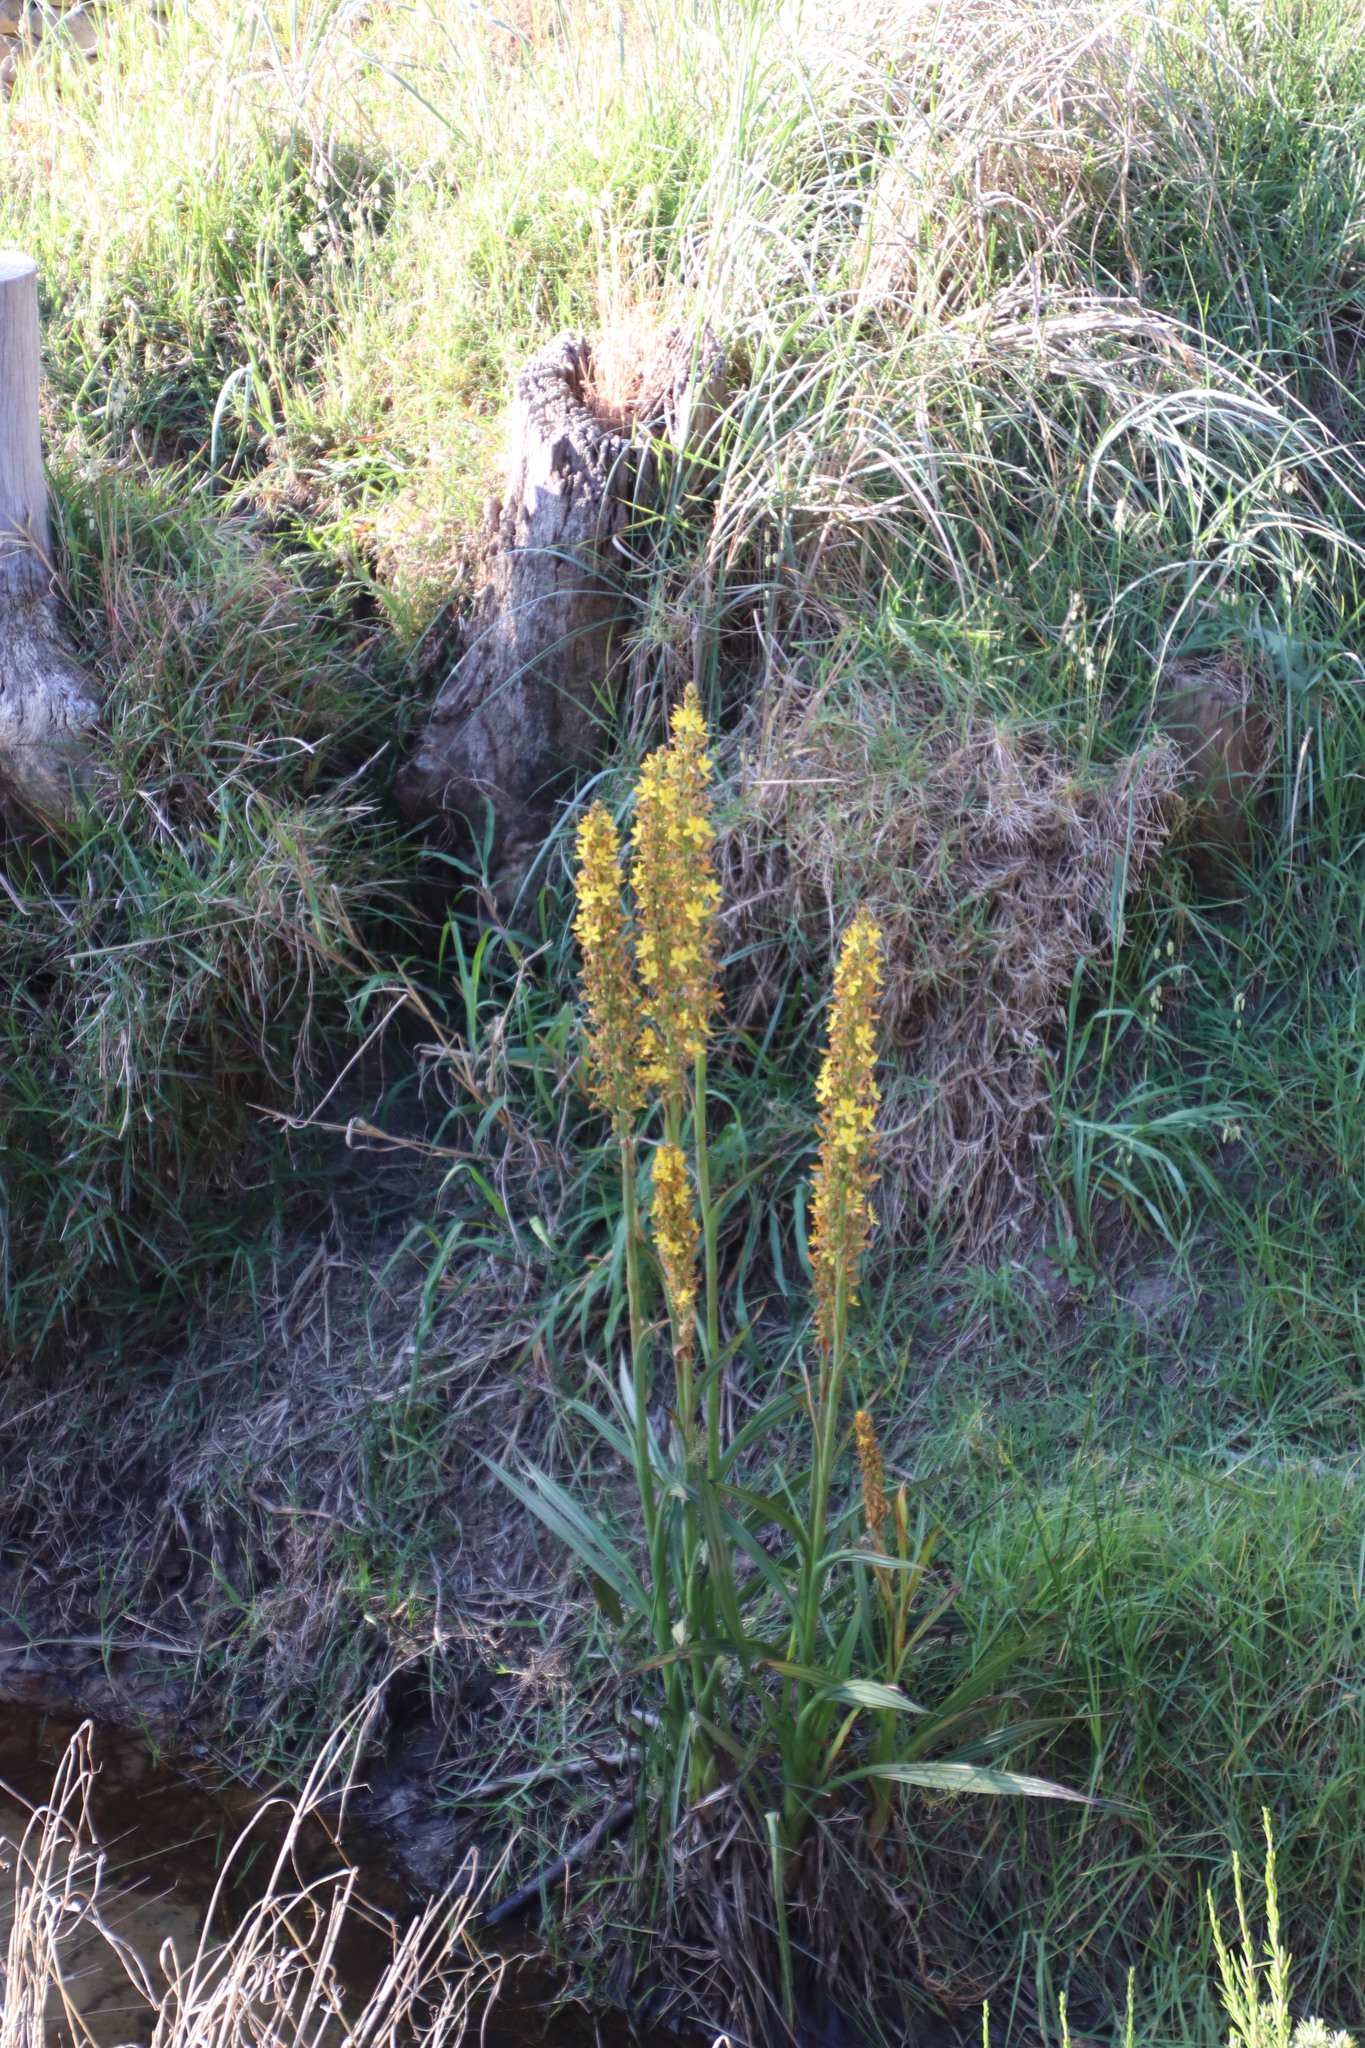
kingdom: Plantae
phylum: Tracheophyta
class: Liliopsida
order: Commelinales
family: Haemodoraceae
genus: Wachendorfia
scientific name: Wachendorfia thyrsiflora
